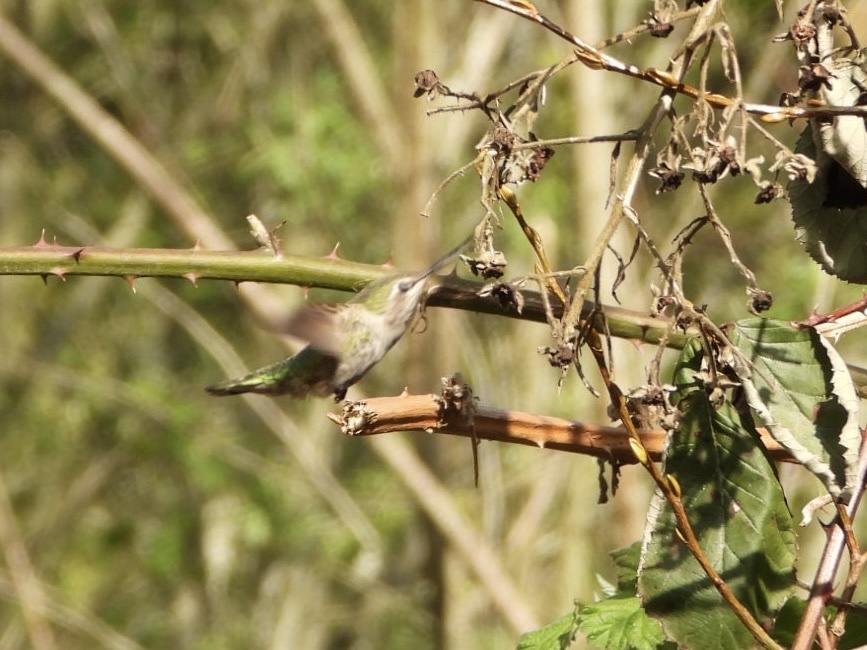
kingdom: Animalia
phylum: Chordata
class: Aves
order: Apodiformes
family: Trochilidae
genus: Calypte
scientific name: Calypte anna
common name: Anna's hummingbird
